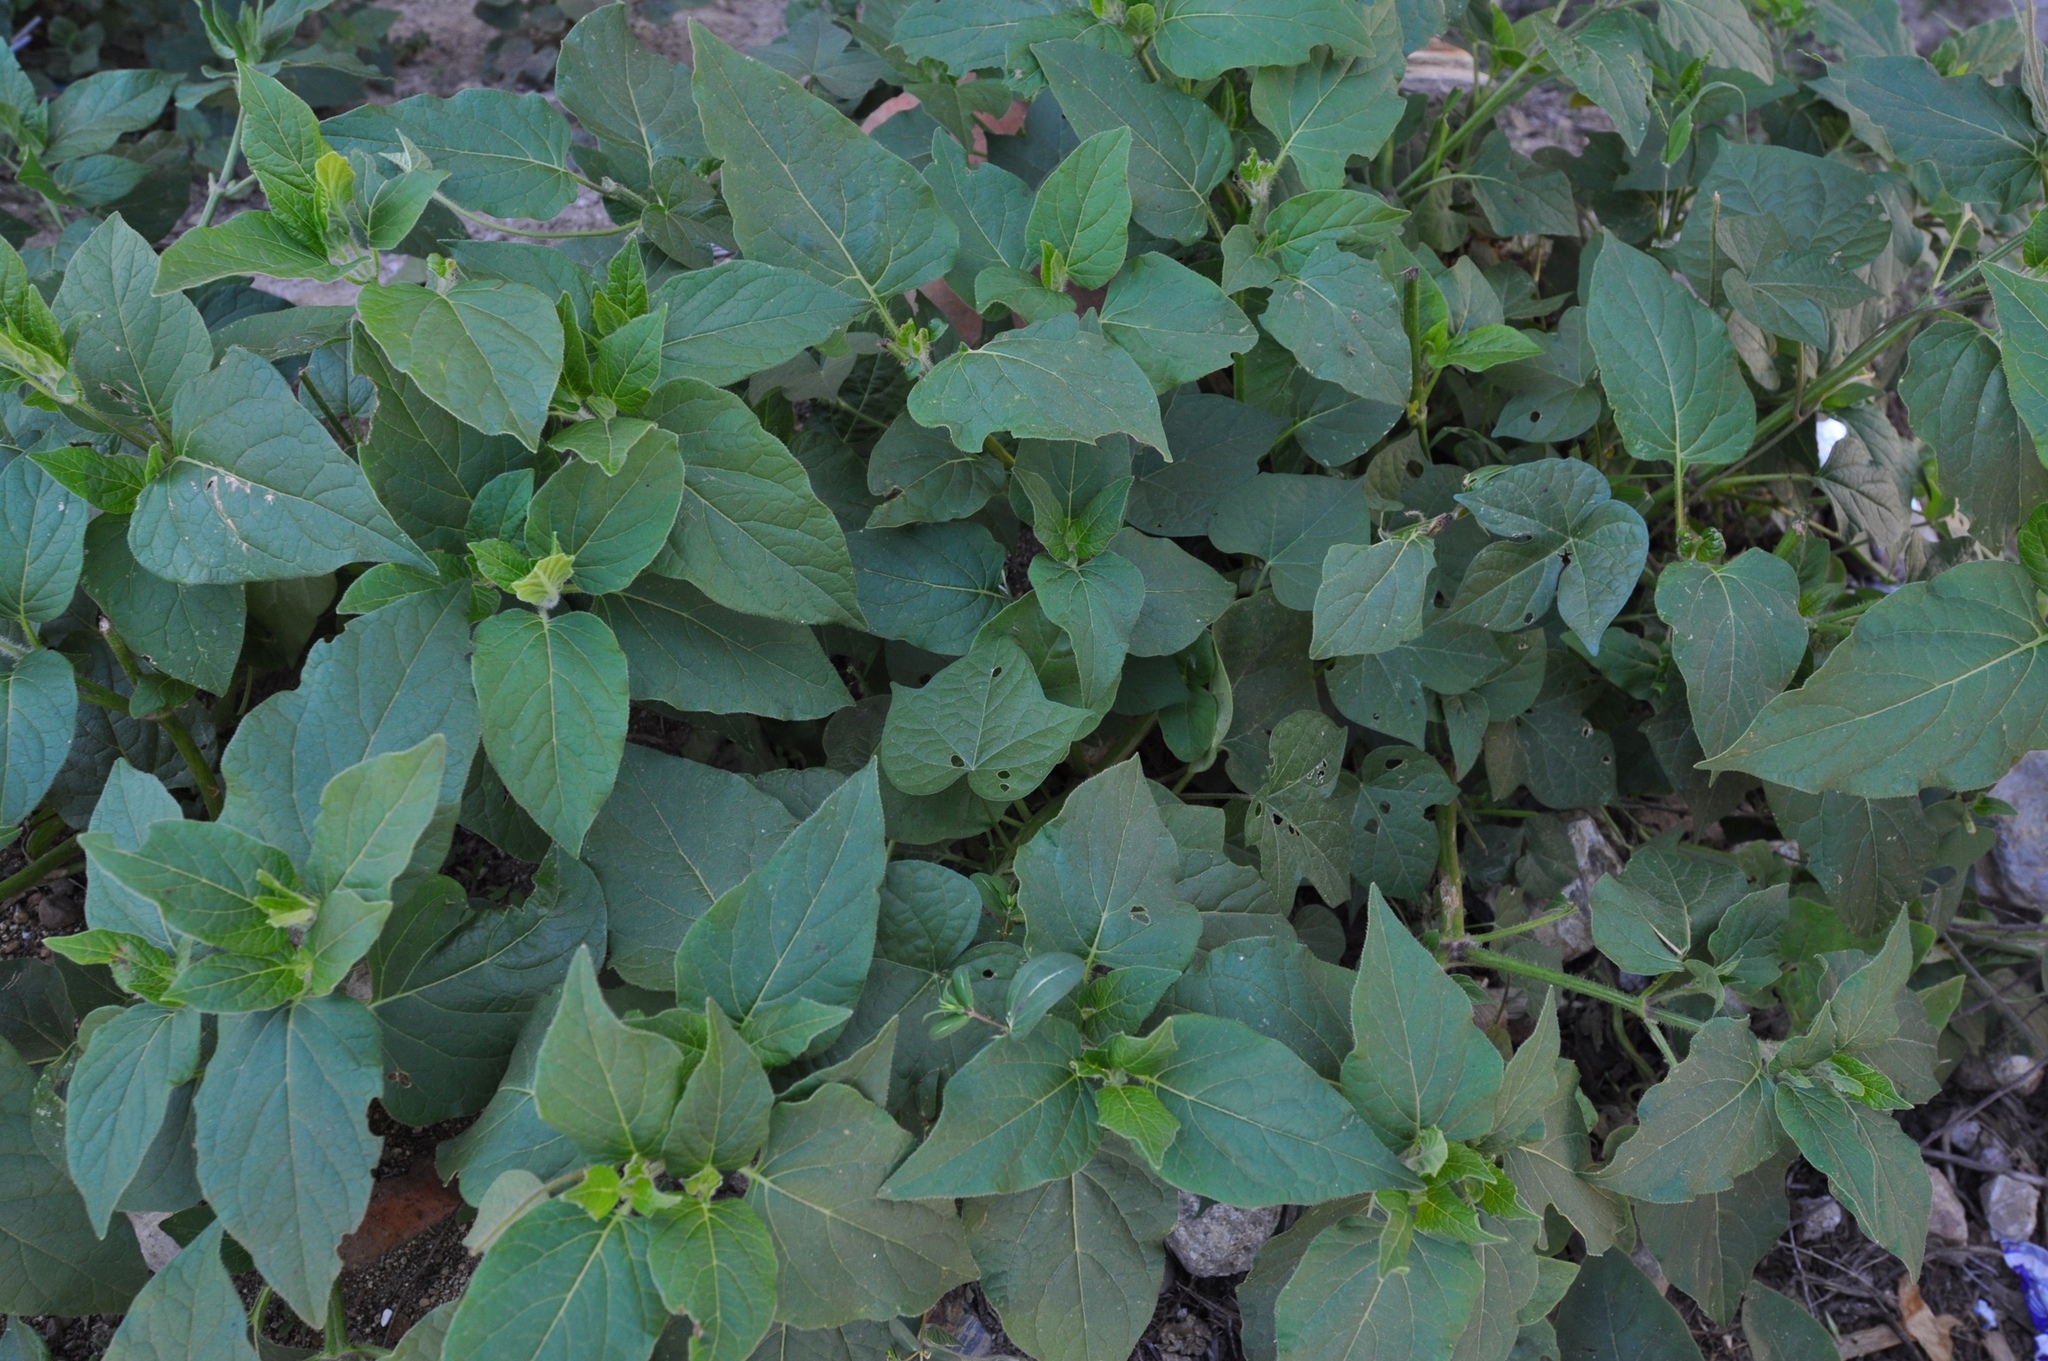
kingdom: Plantae
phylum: Tracheophyta
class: Magnoliopsida
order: Caryophyllales
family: Nyctaginaceae
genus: Mirabilis
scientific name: Mirabilis jalapa
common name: Marvel-of-peru
